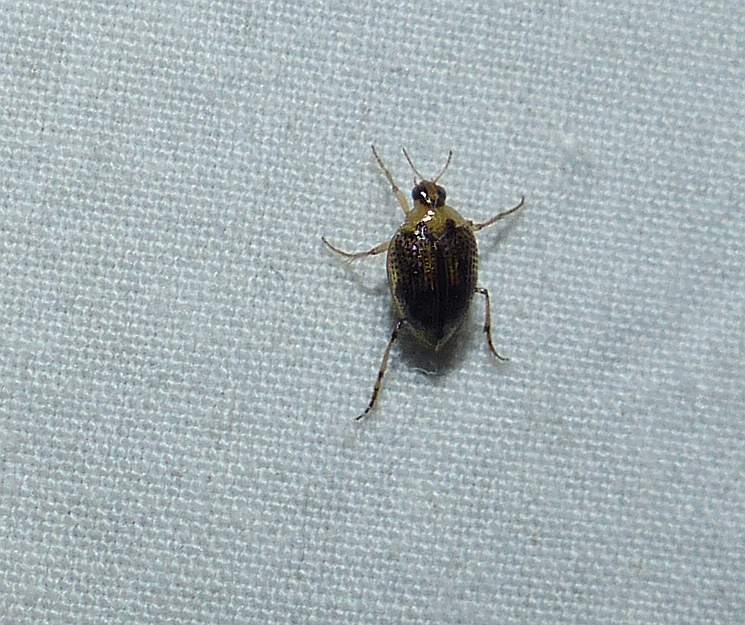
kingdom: Animalia
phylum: Arthropoda
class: Insecta
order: Coleoptera
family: Haliplidae
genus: Peltodytes
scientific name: Peltodytes edentulus
